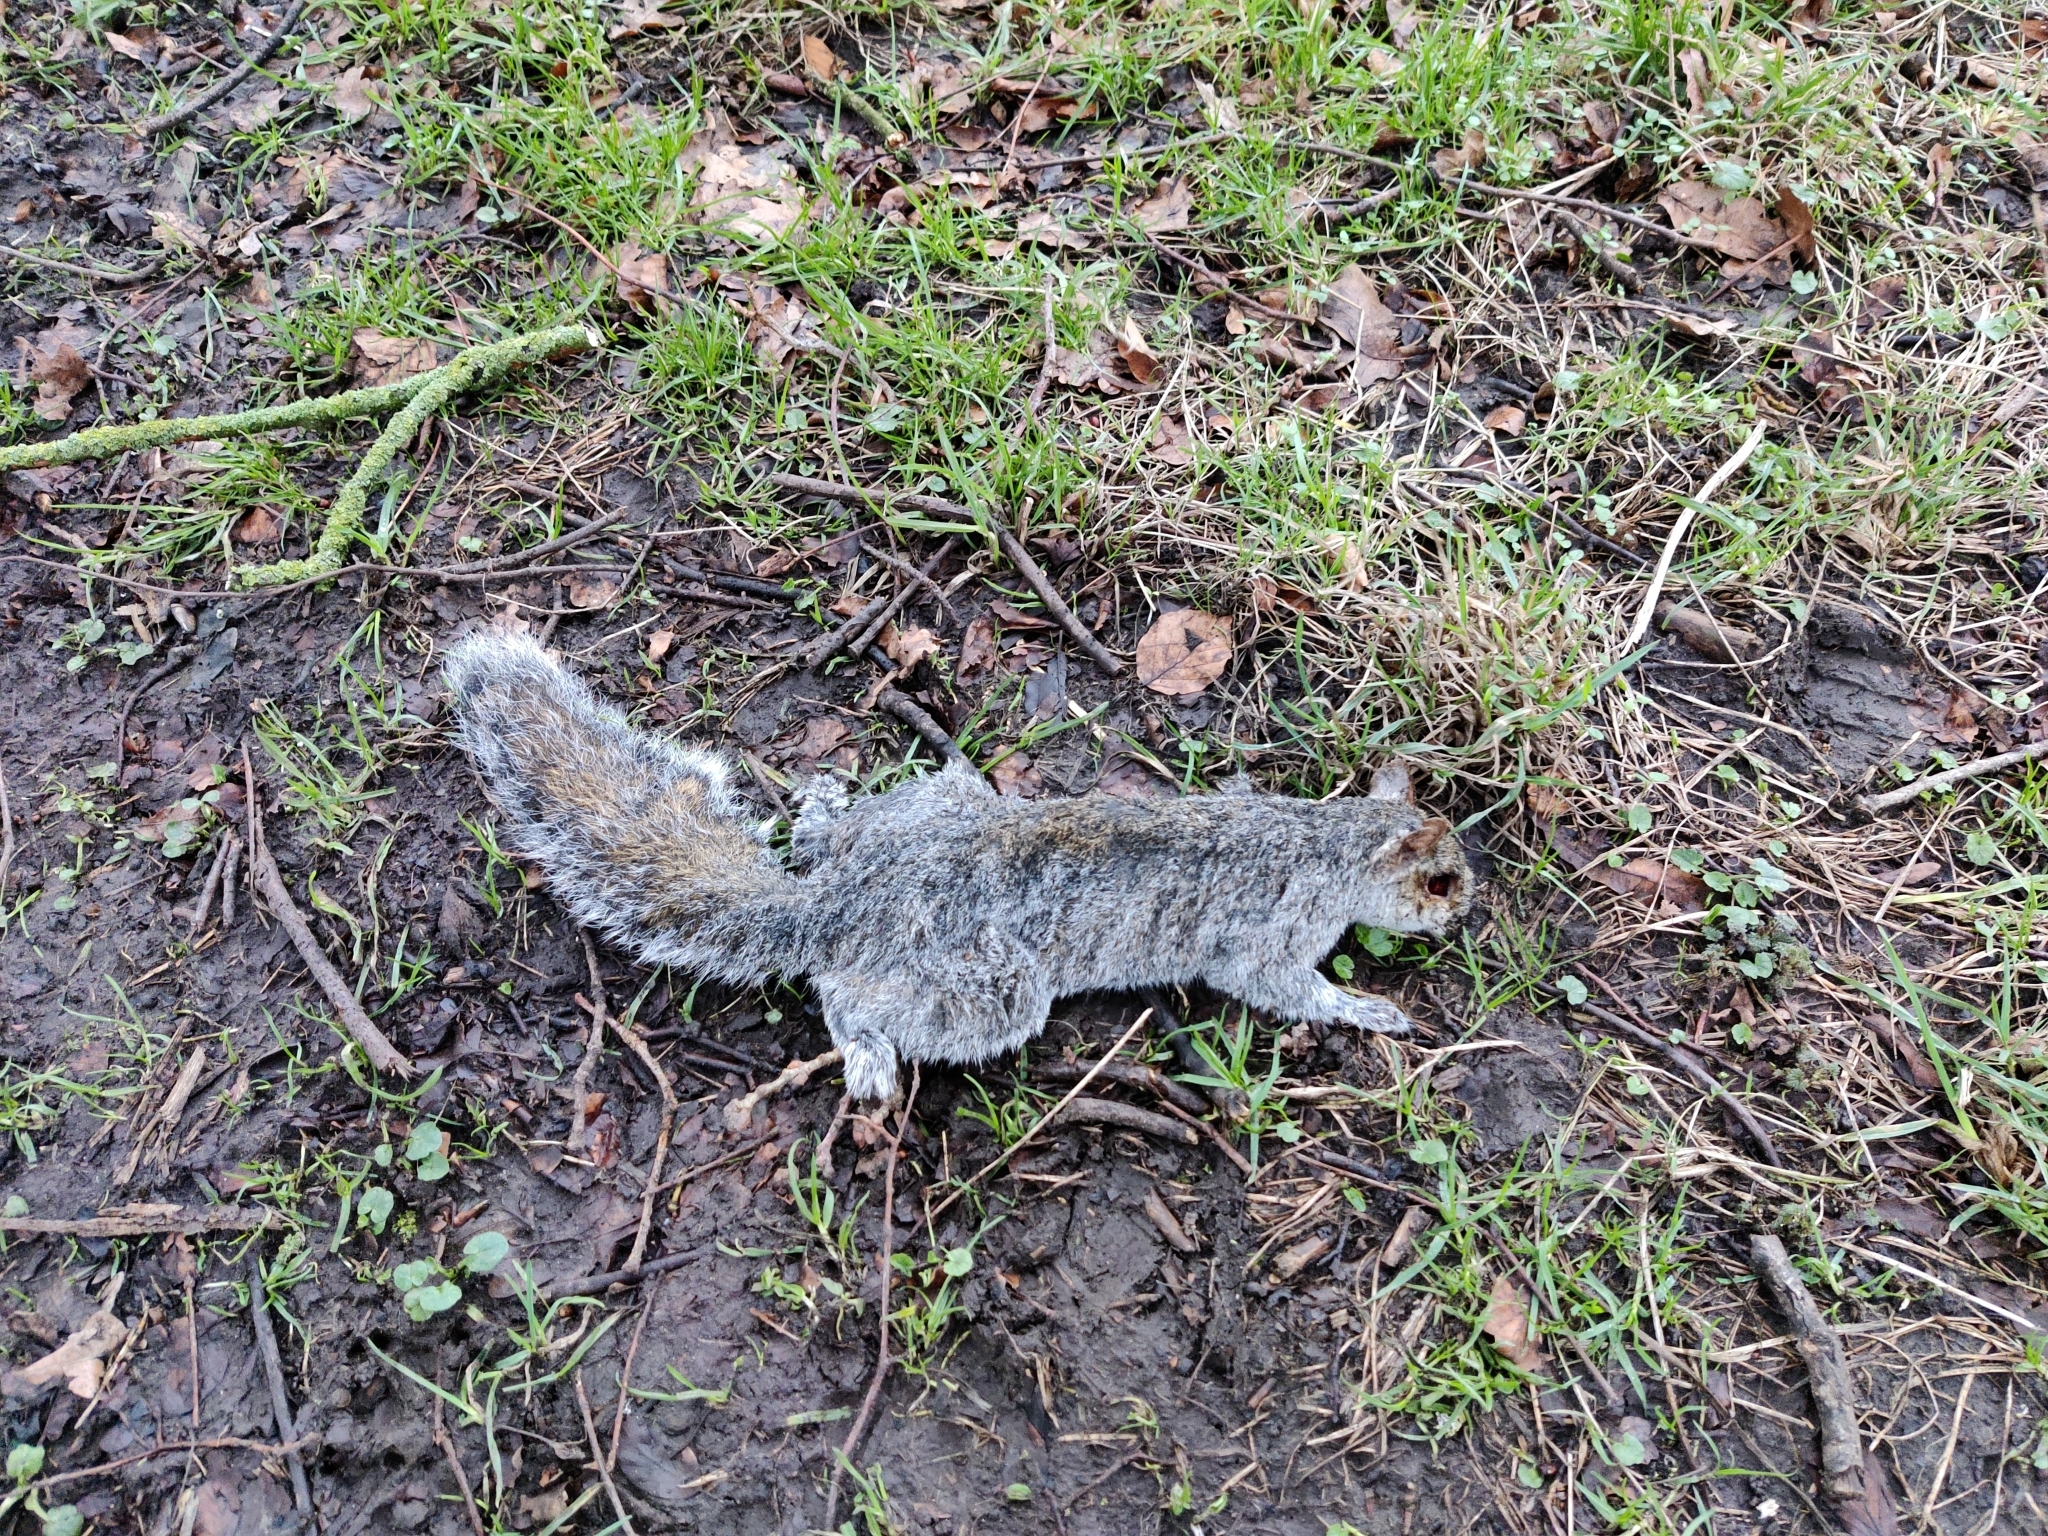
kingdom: Animalia
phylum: Chordata
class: Mammalia
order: Rodentia
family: Sciuridae
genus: Sciurus
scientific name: Sciurus carolinensis
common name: Eastern gray squirrel
